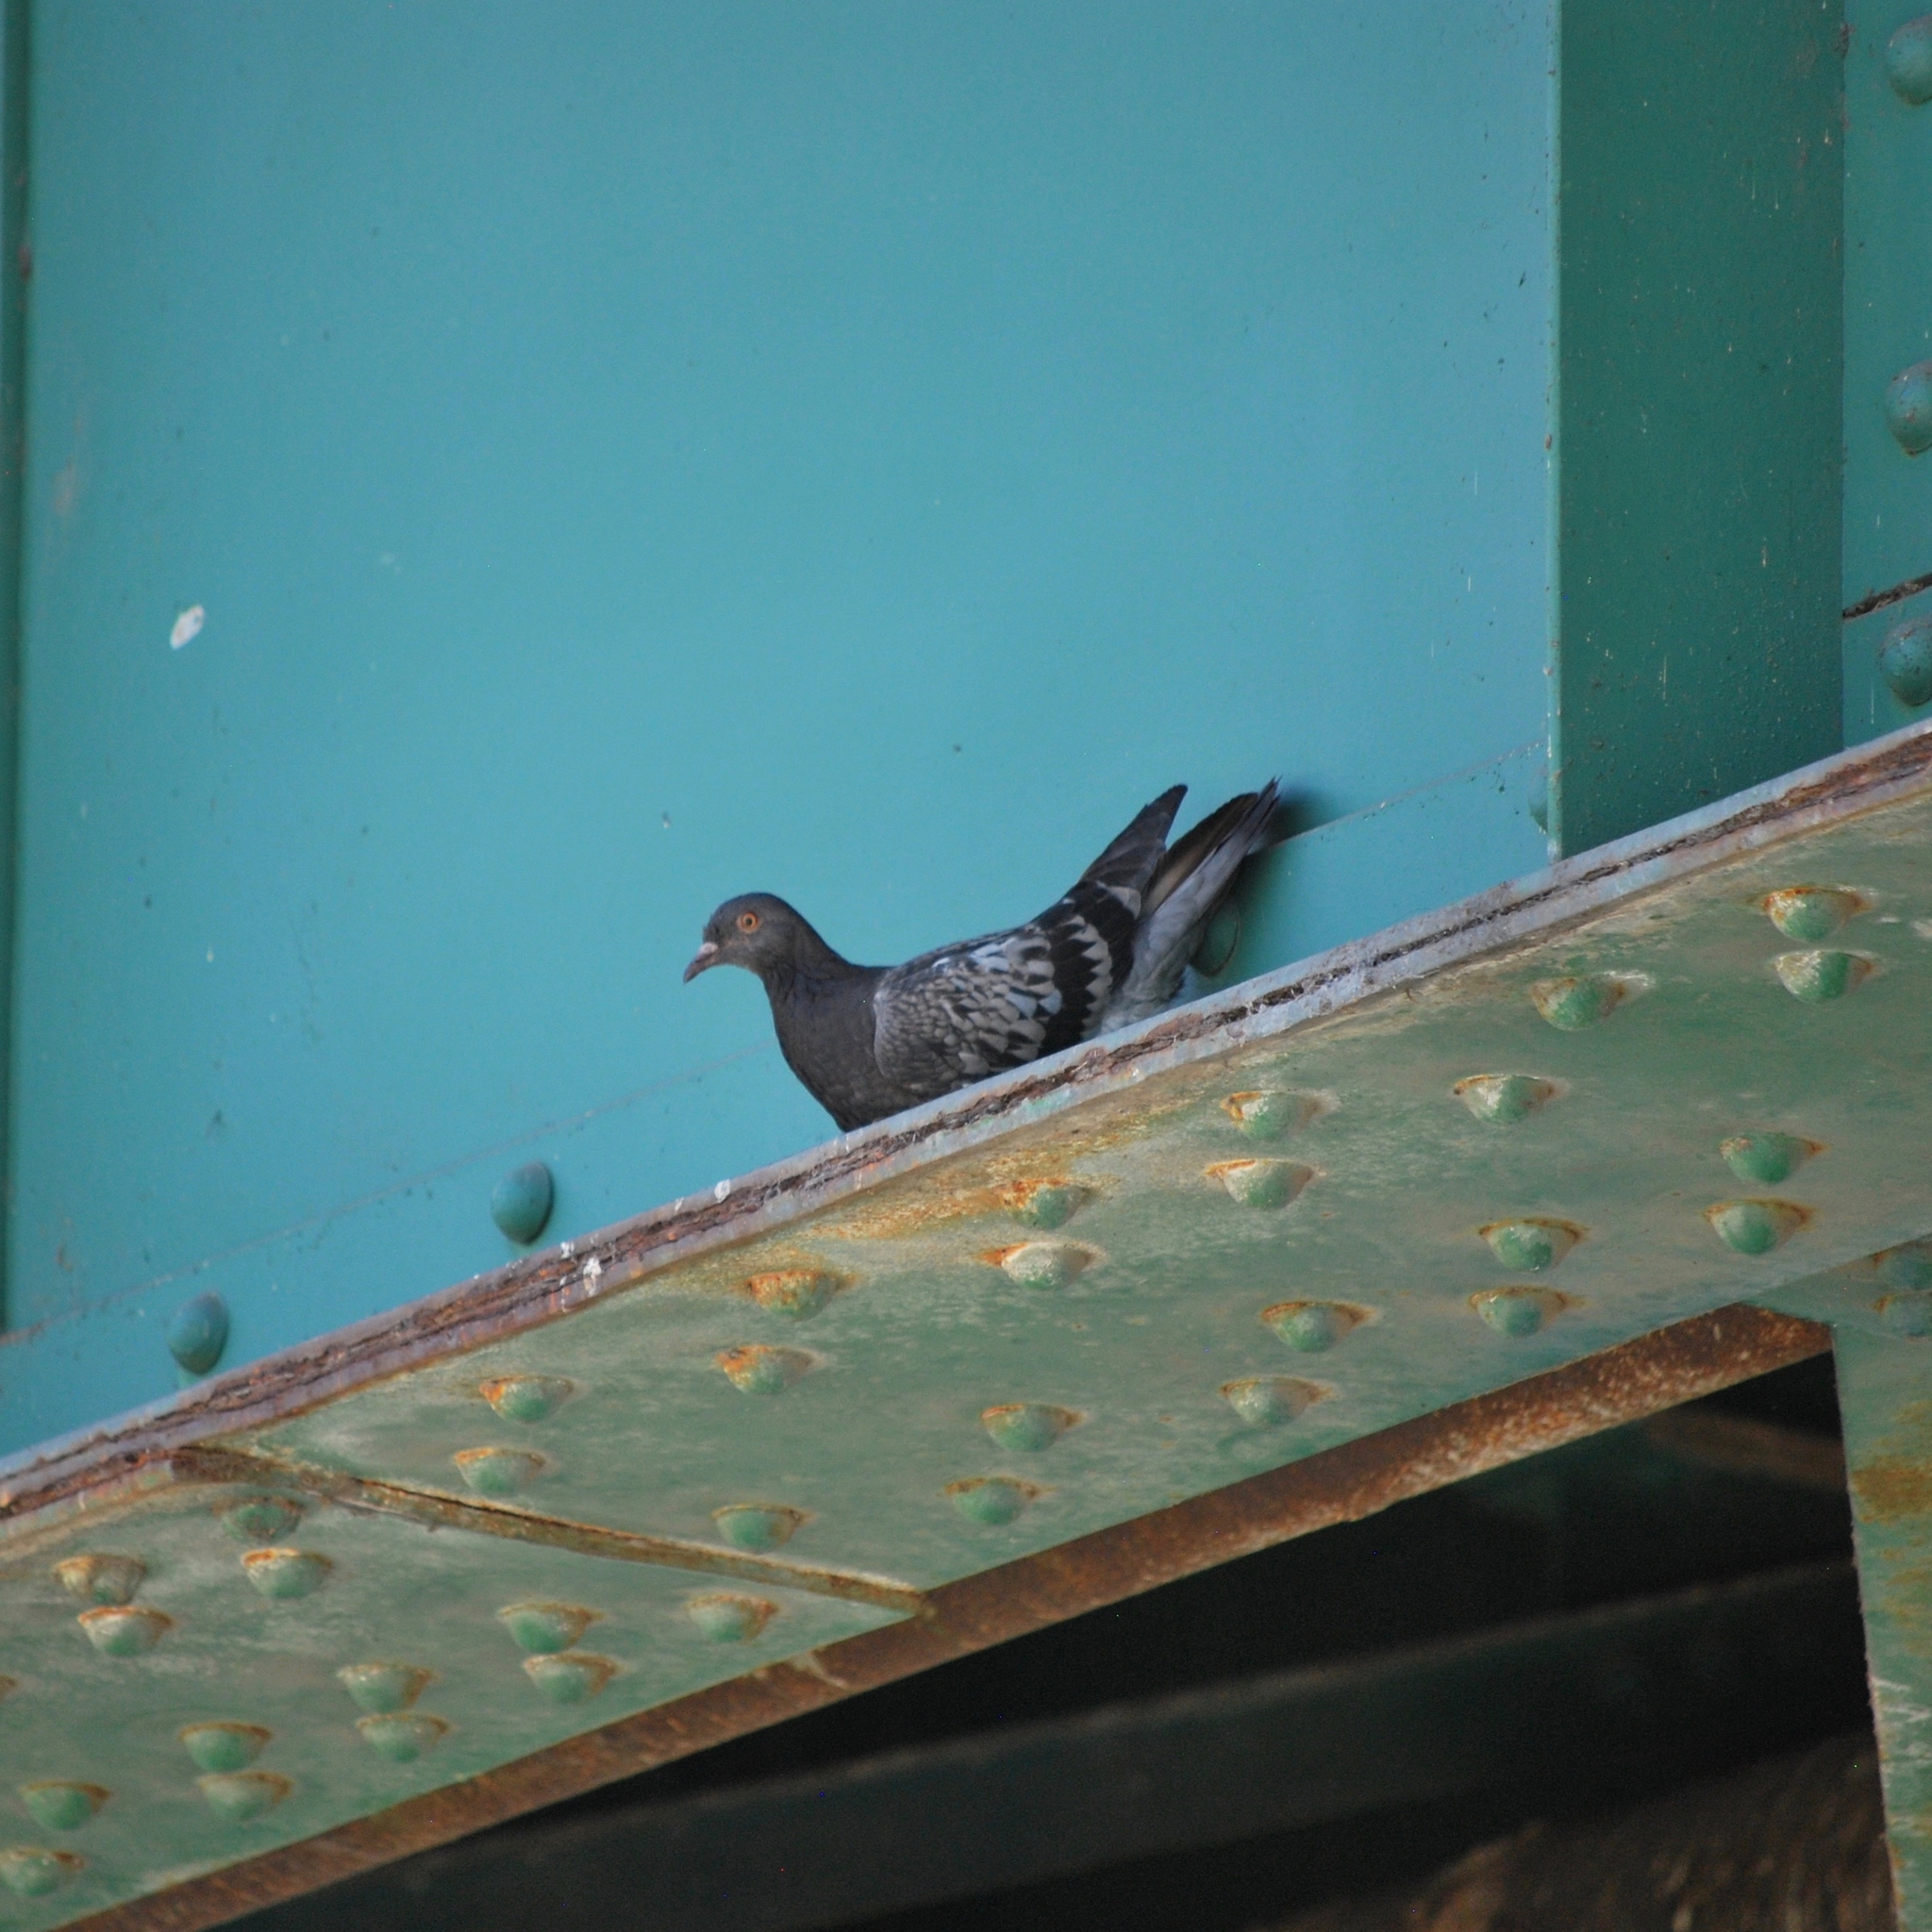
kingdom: Animalia
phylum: Chordata
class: Aves
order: Columbiformes
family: Columbidae
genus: Columba
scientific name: Columba livia
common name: Rock pigeon
